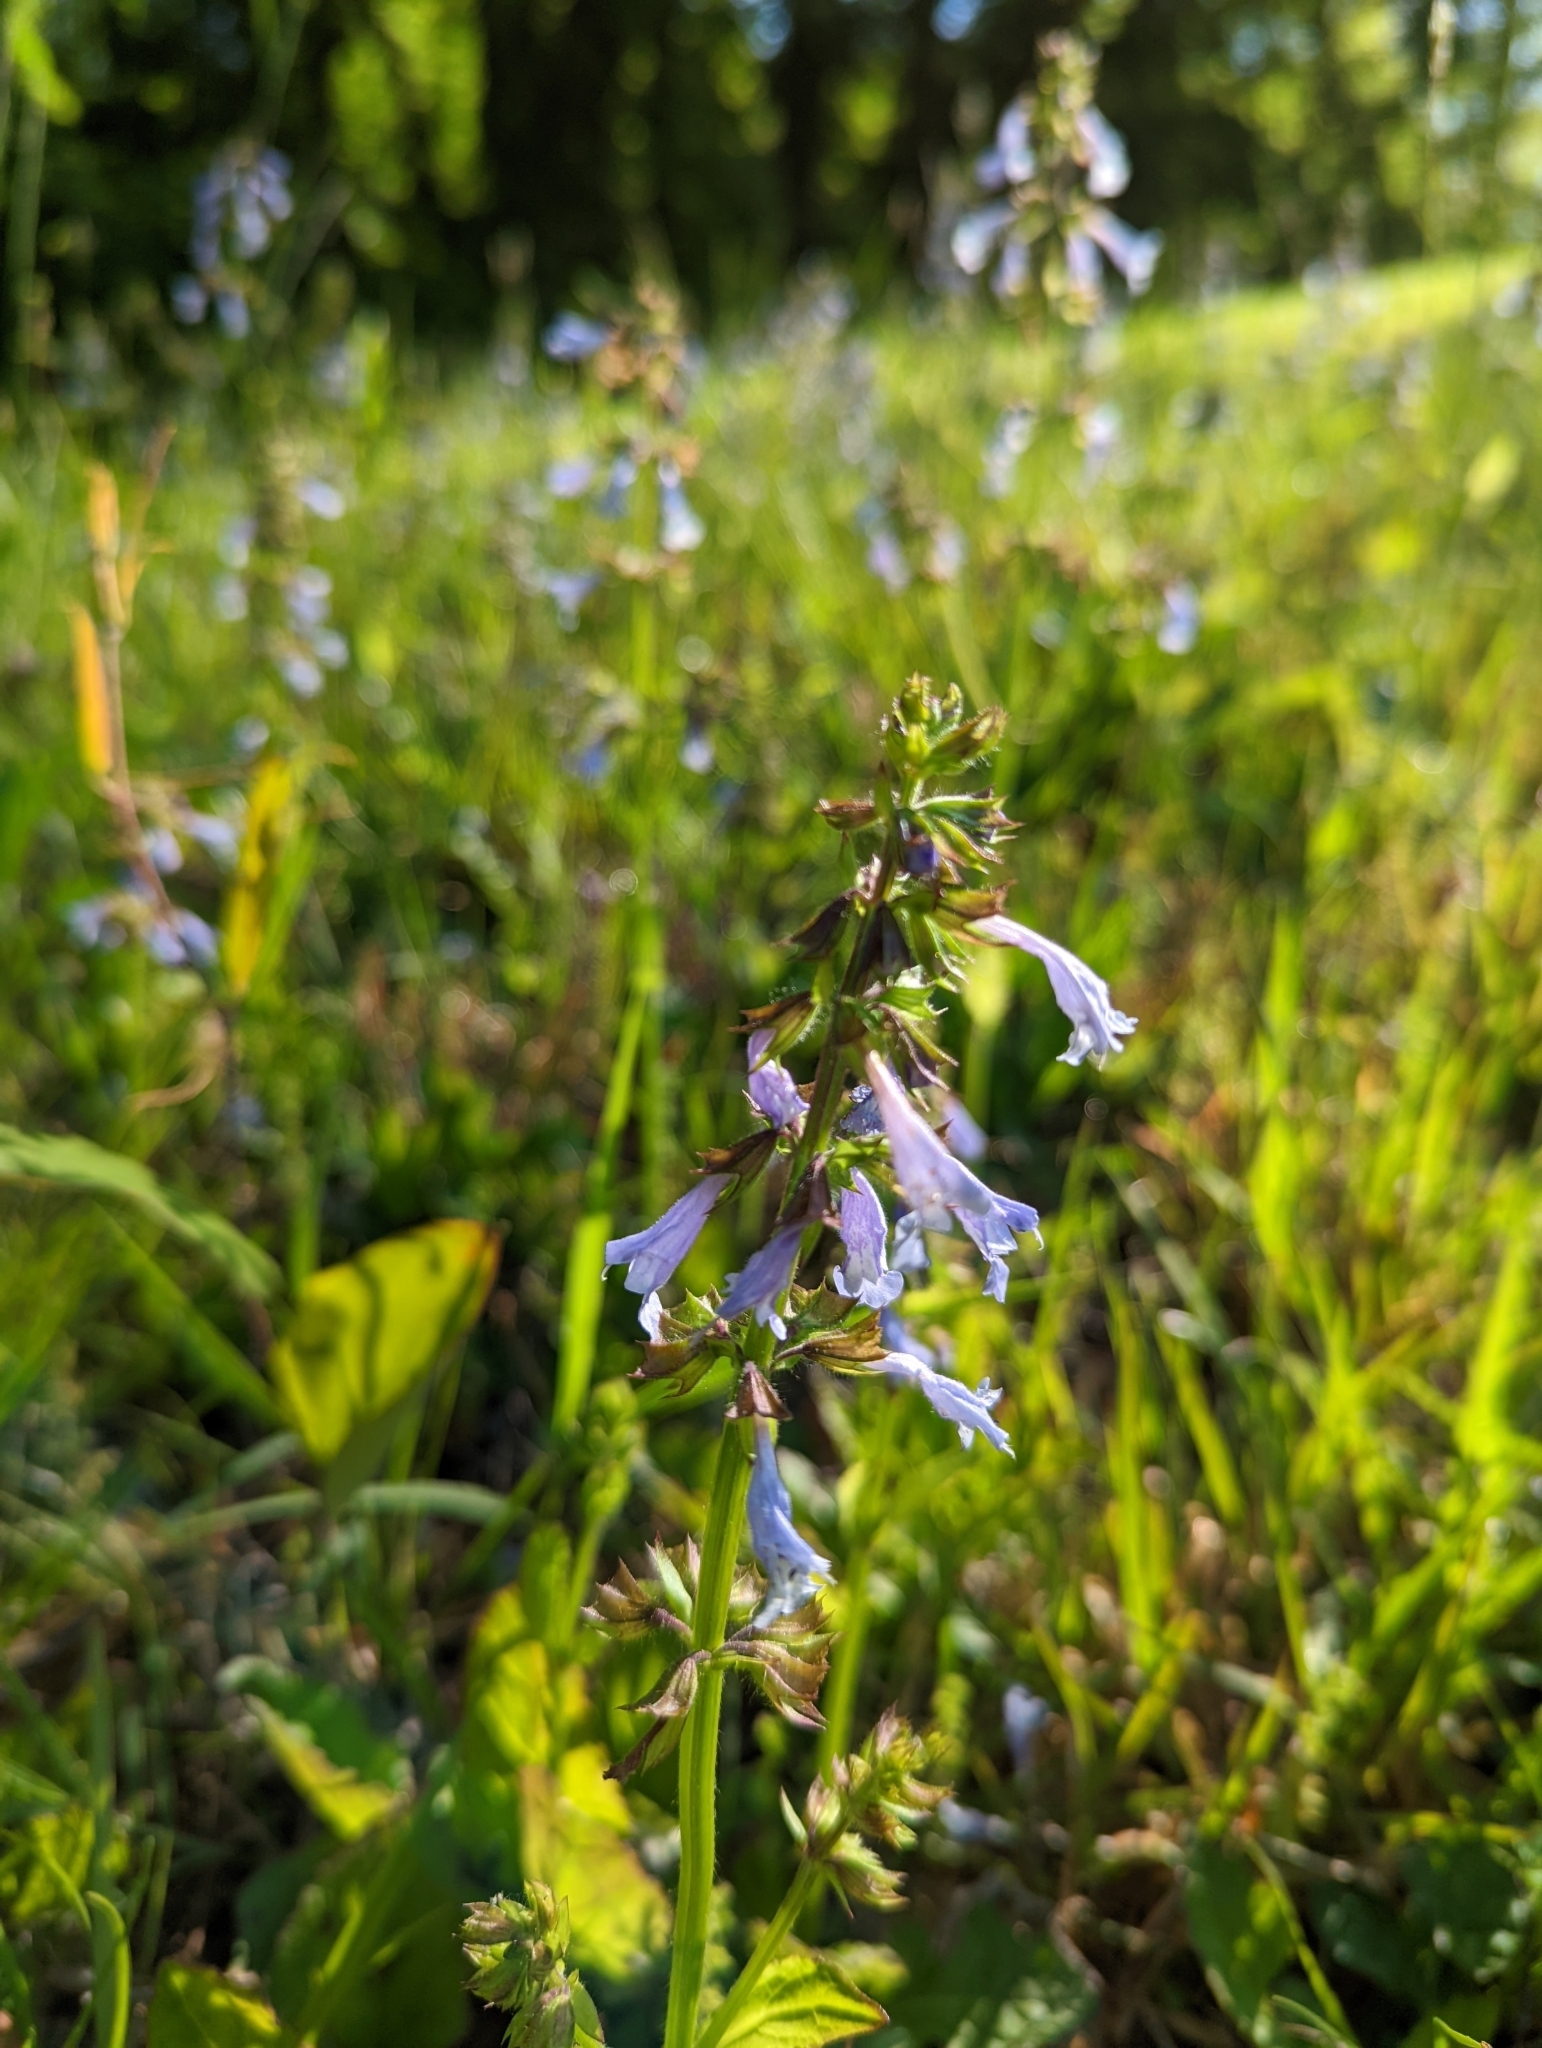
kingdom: Plantae
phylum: Tracheophyta
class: Magnoliopsida
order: Lamiales
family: Lamiaceae
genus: Salvia
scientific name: Salvia lyrata
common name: Cancerweed
